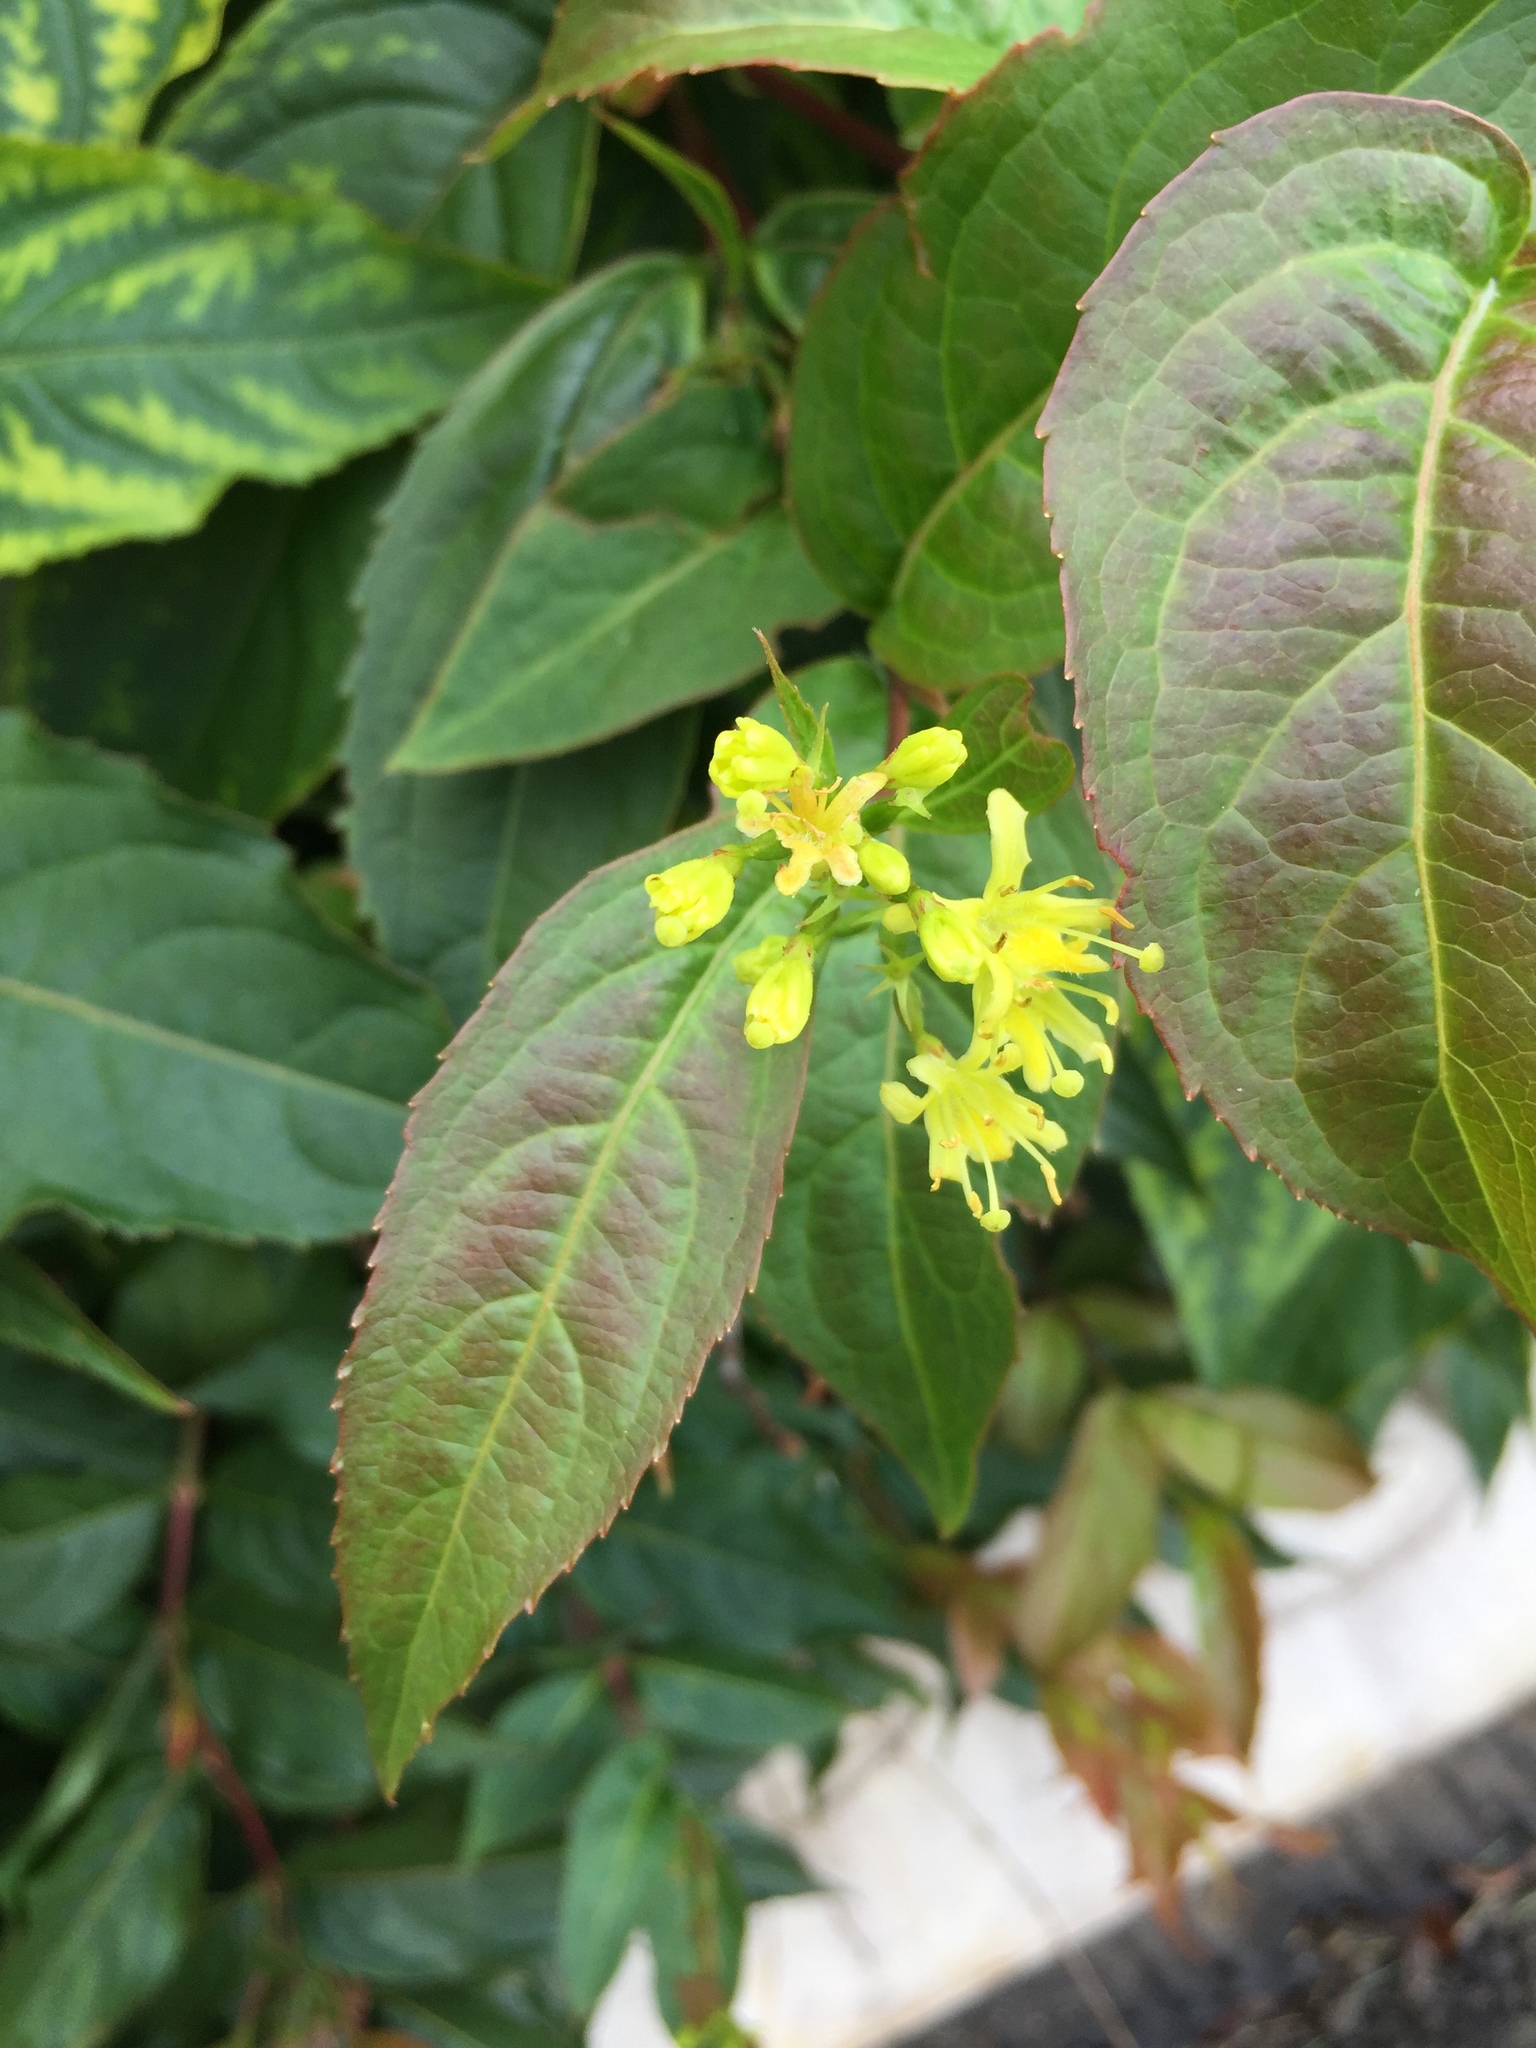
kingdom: Plantae
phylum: Tracheophyta
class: Magnoliopsida
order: Dipsacales
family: Caprifoliaceae
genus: Diervilla
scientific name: Diervilla lonicera
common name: Bush-honeysuckle
